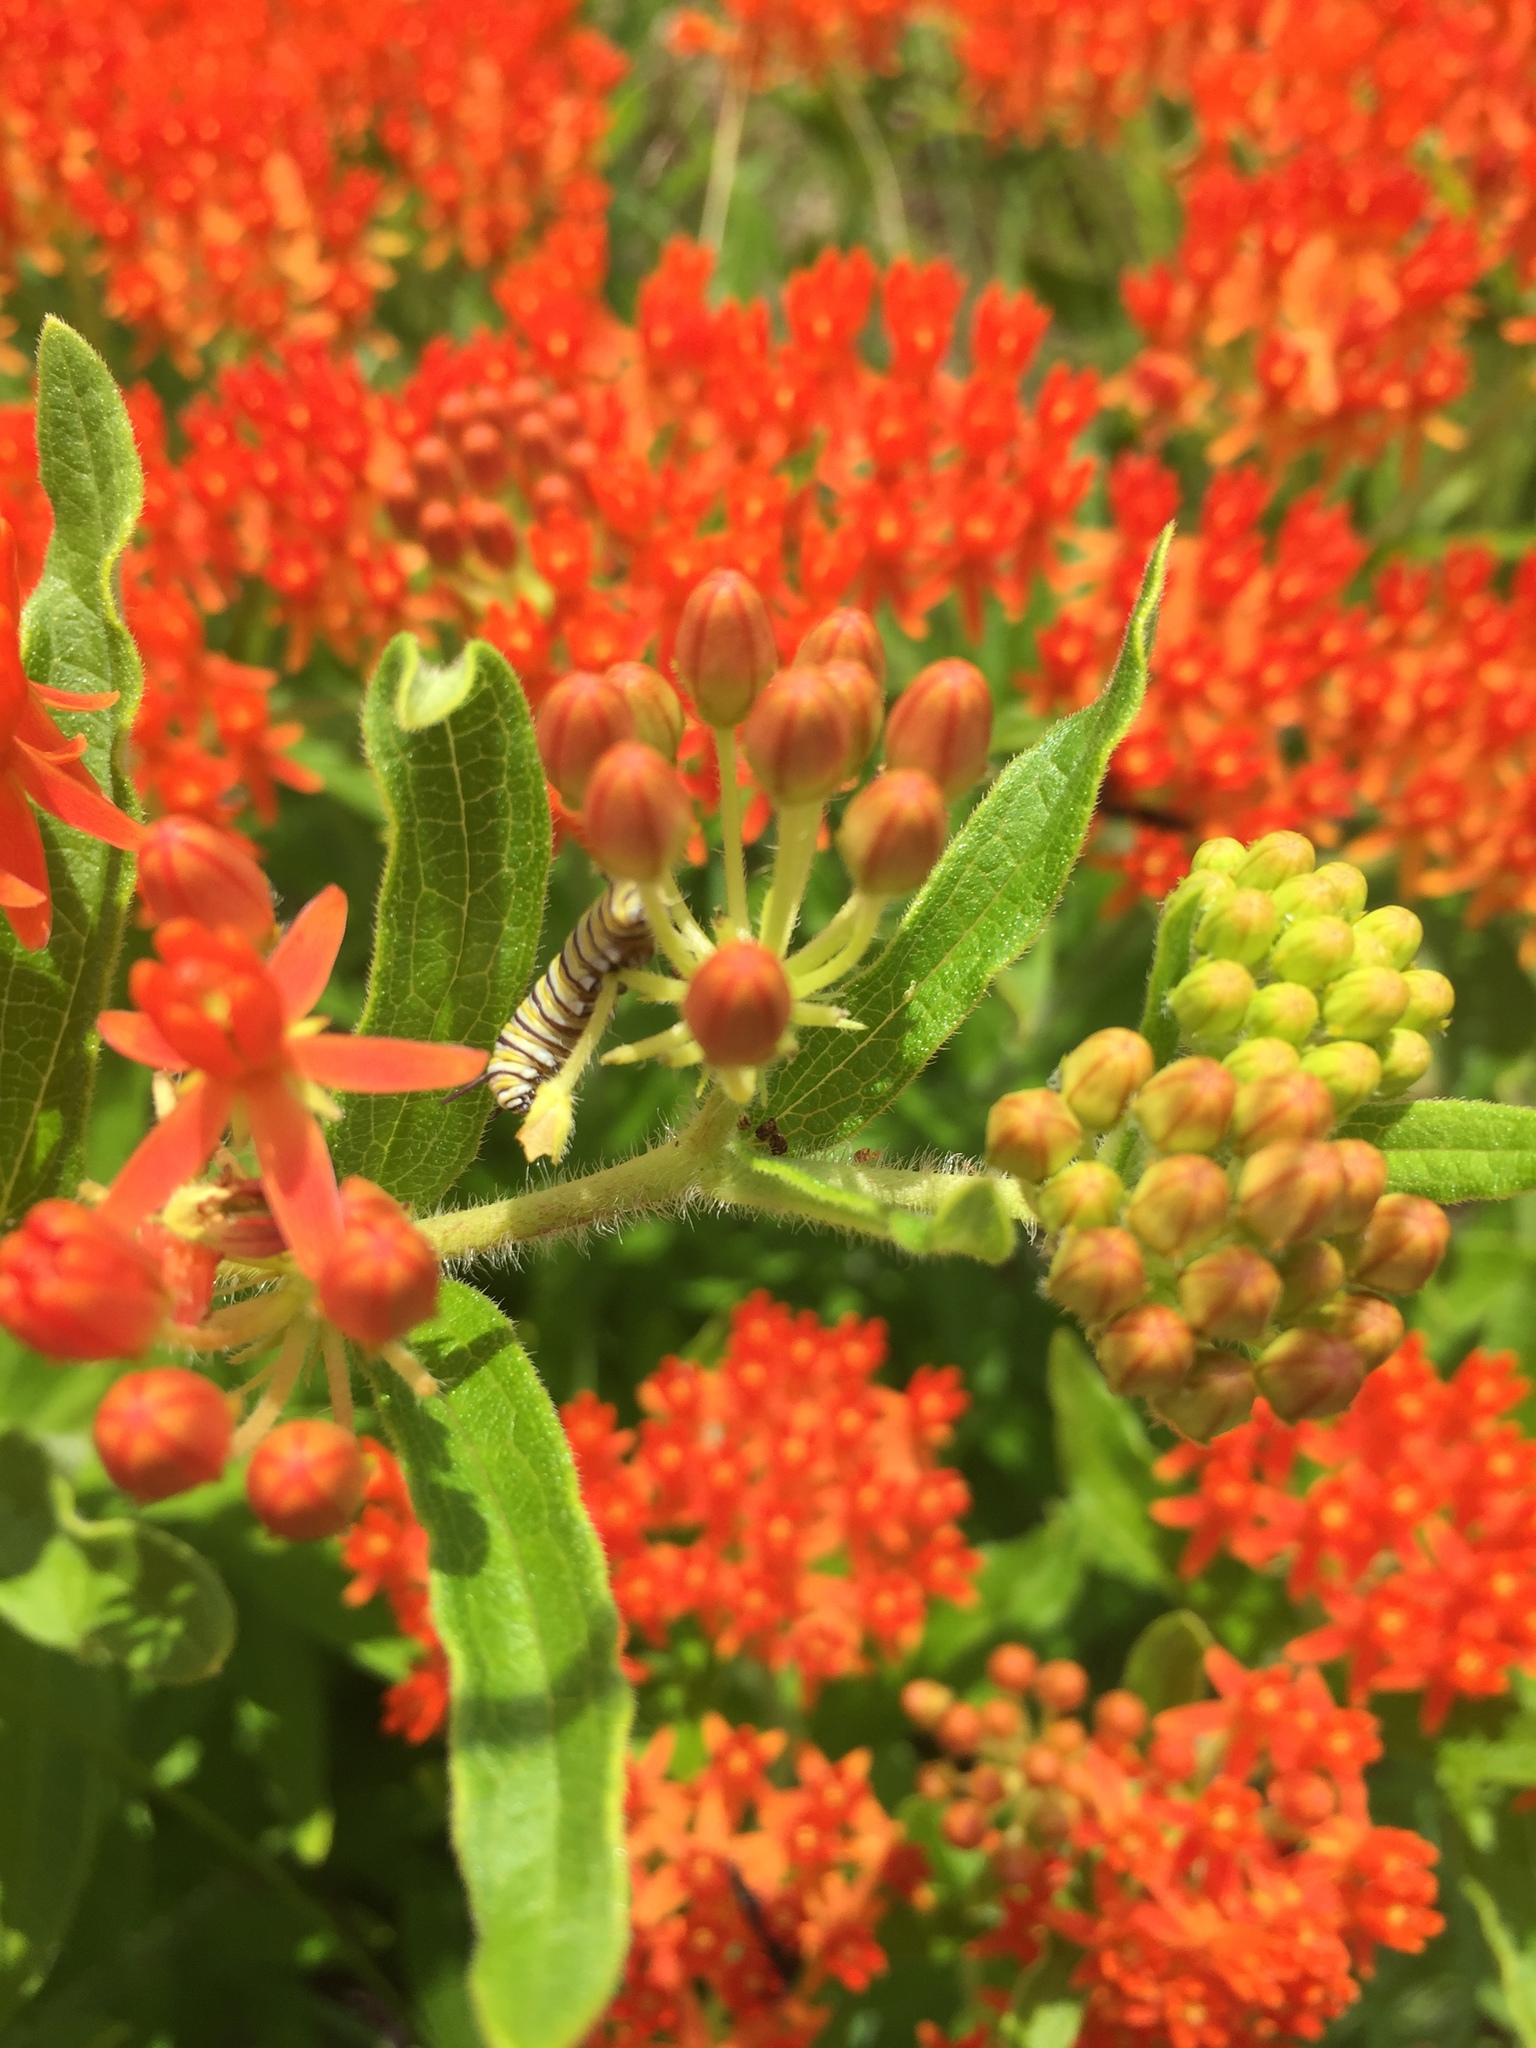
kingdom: Animalia
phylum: Arthropoda
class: Insecta
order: Lepidoptera
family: Nymphalidae
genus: Danaus
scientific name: Danaus plexippus
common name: Monarch
